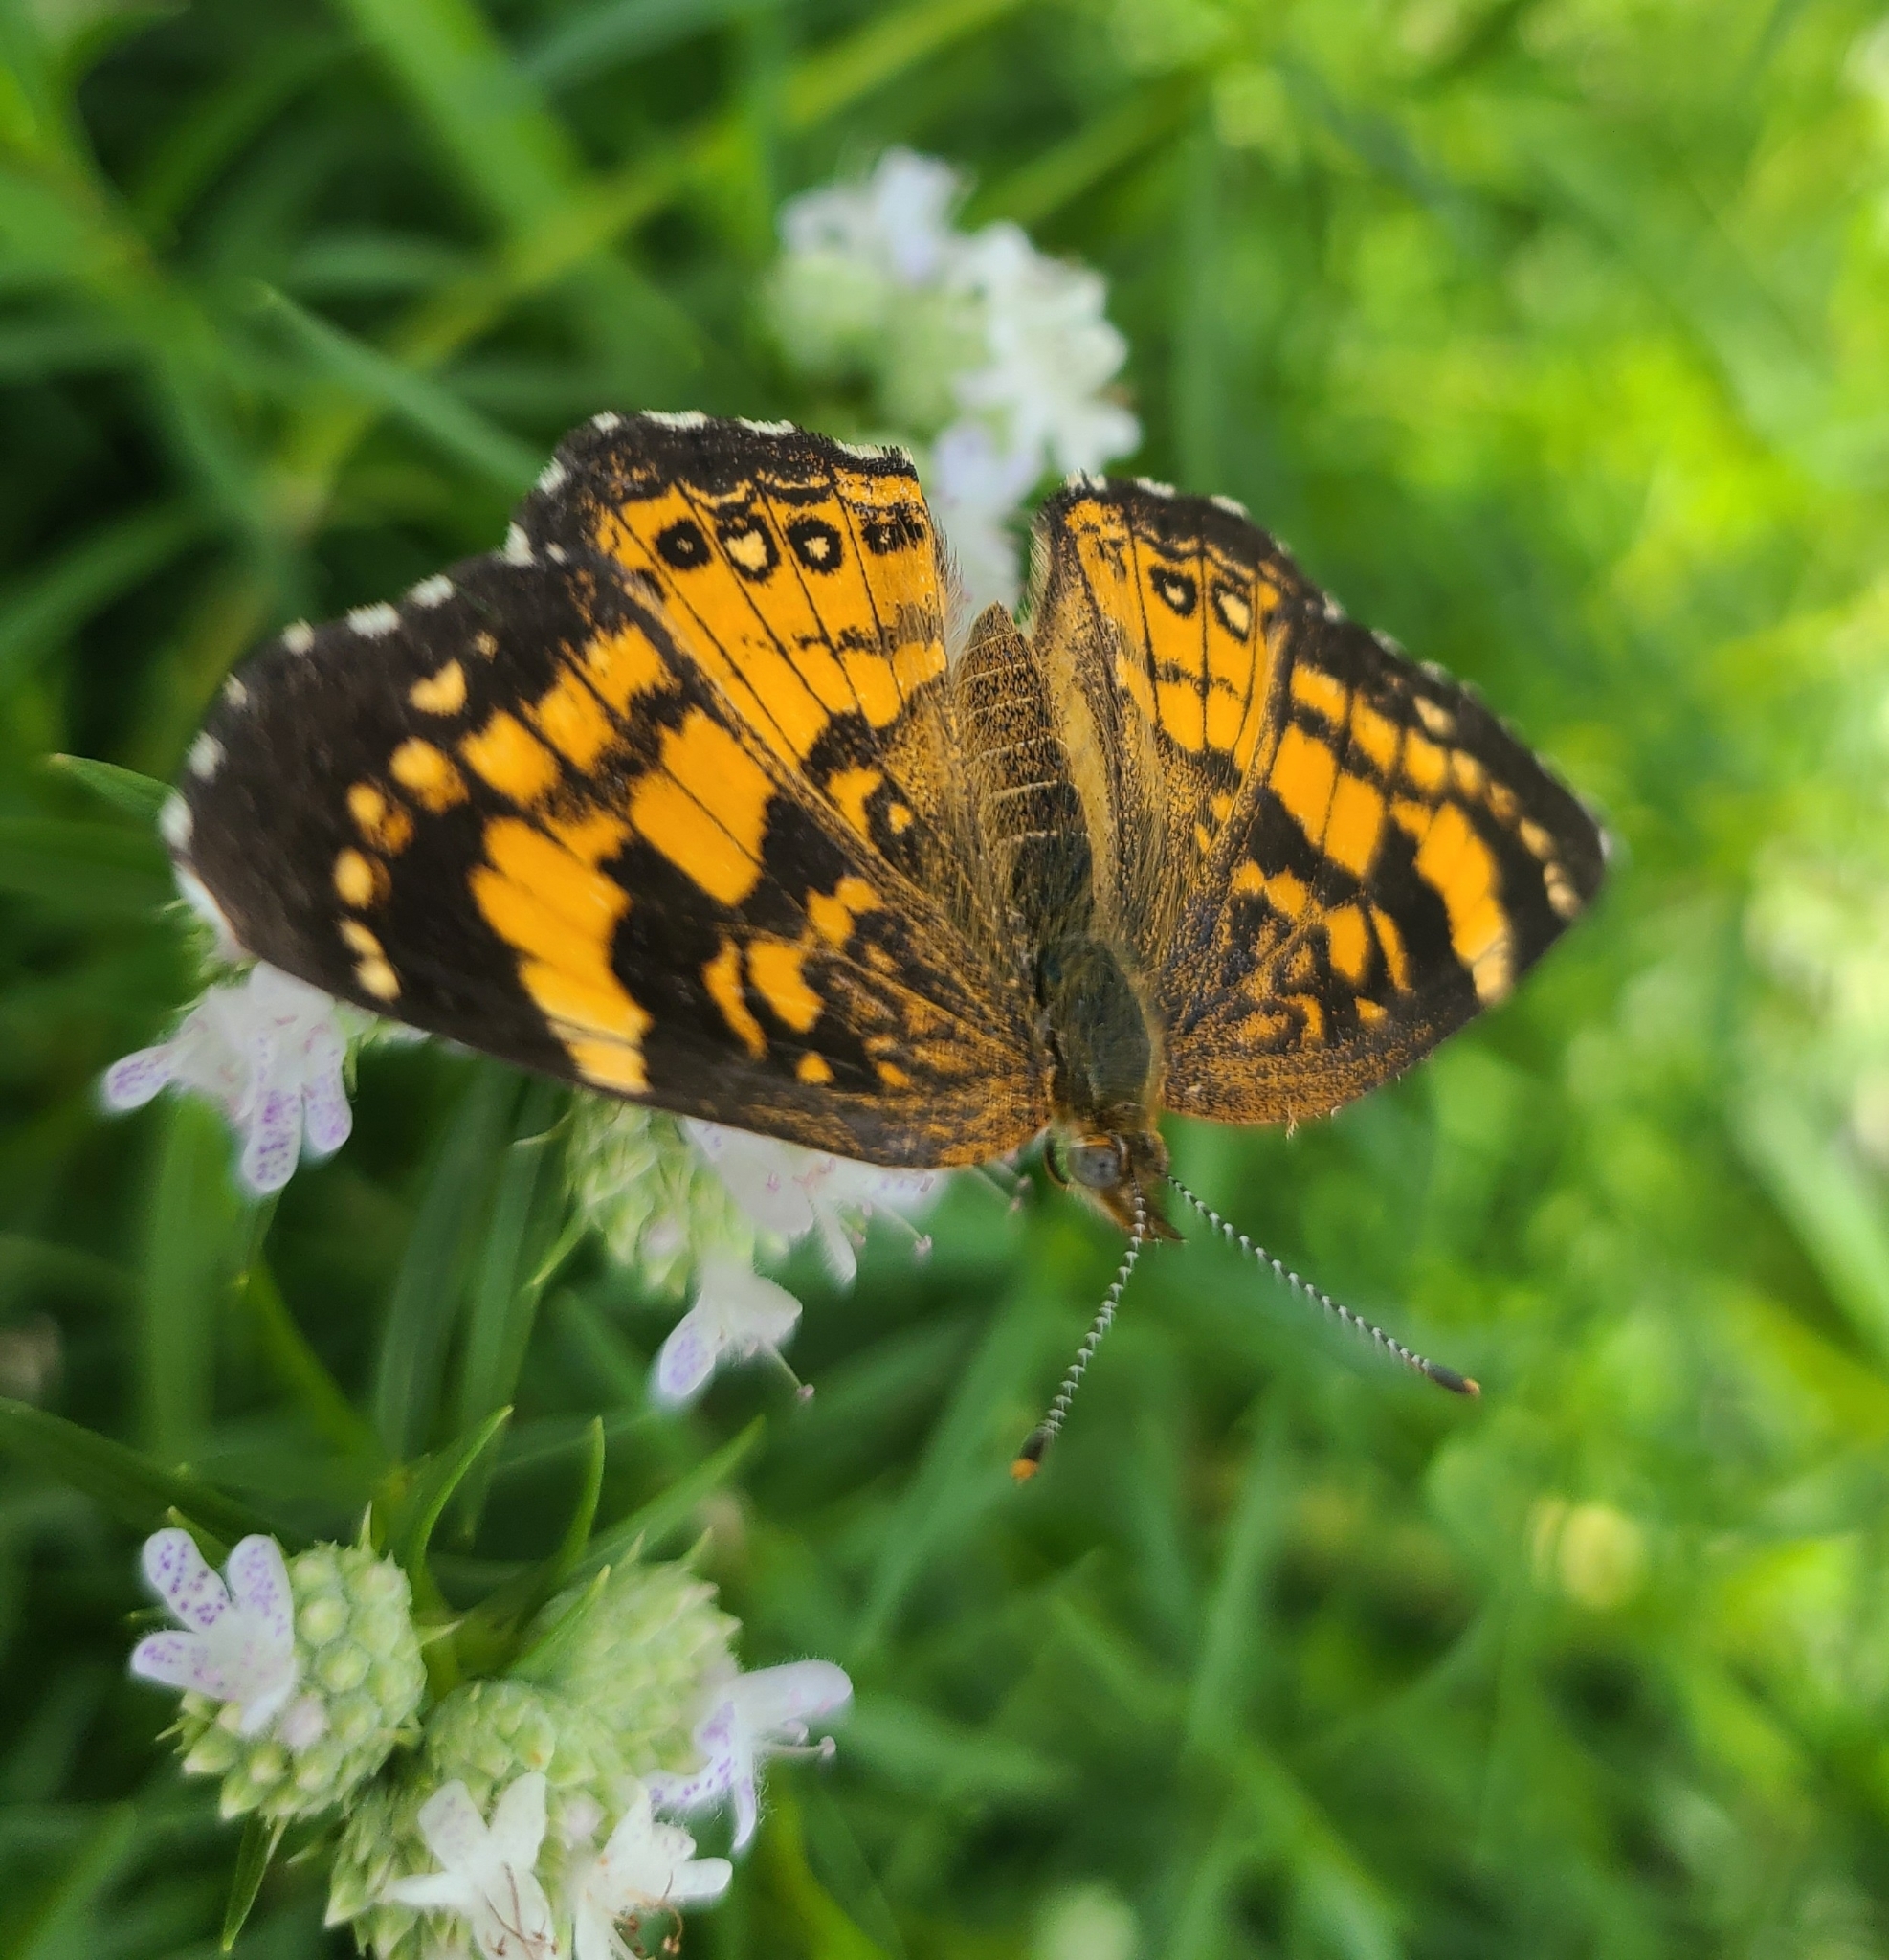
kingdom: Animalia
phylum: Arthropoda
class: Insecta
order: Lepidoptera
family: Nymphalidae
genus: Chlosyne
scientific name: Chlosyne nycteis
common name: Silvery checkerspot
